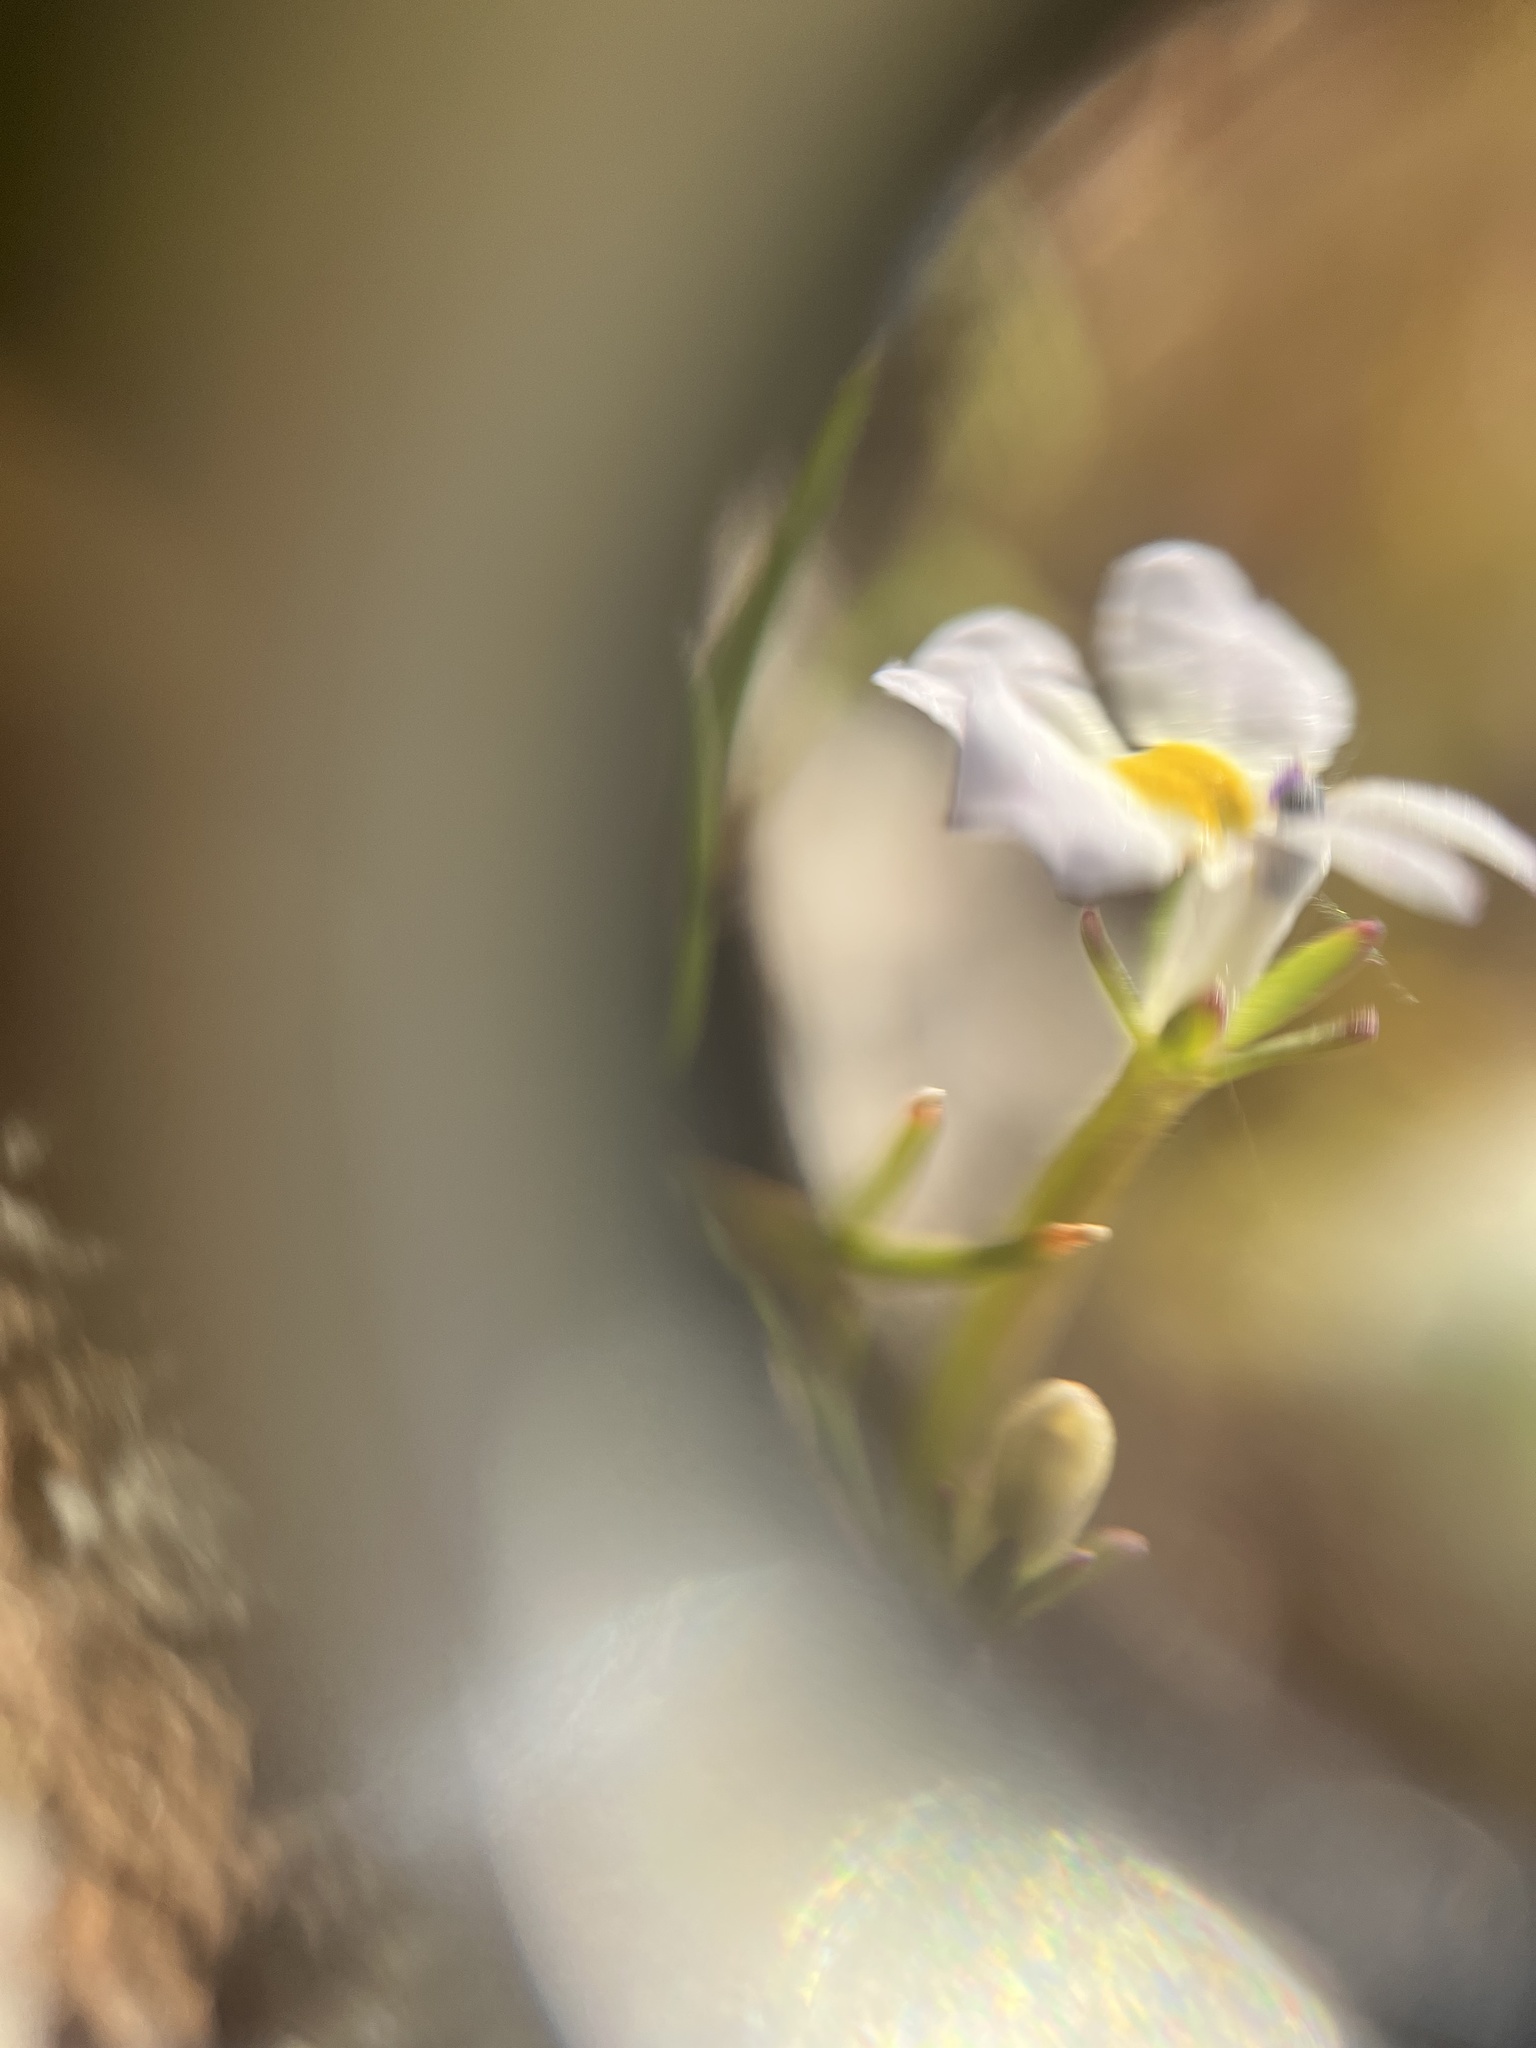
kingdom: Plantae
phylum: Tracheophyta
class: Magnoliopsida
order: Asterales
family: Campanulaceae
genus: Downingia
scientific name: Downingia cuspidata
